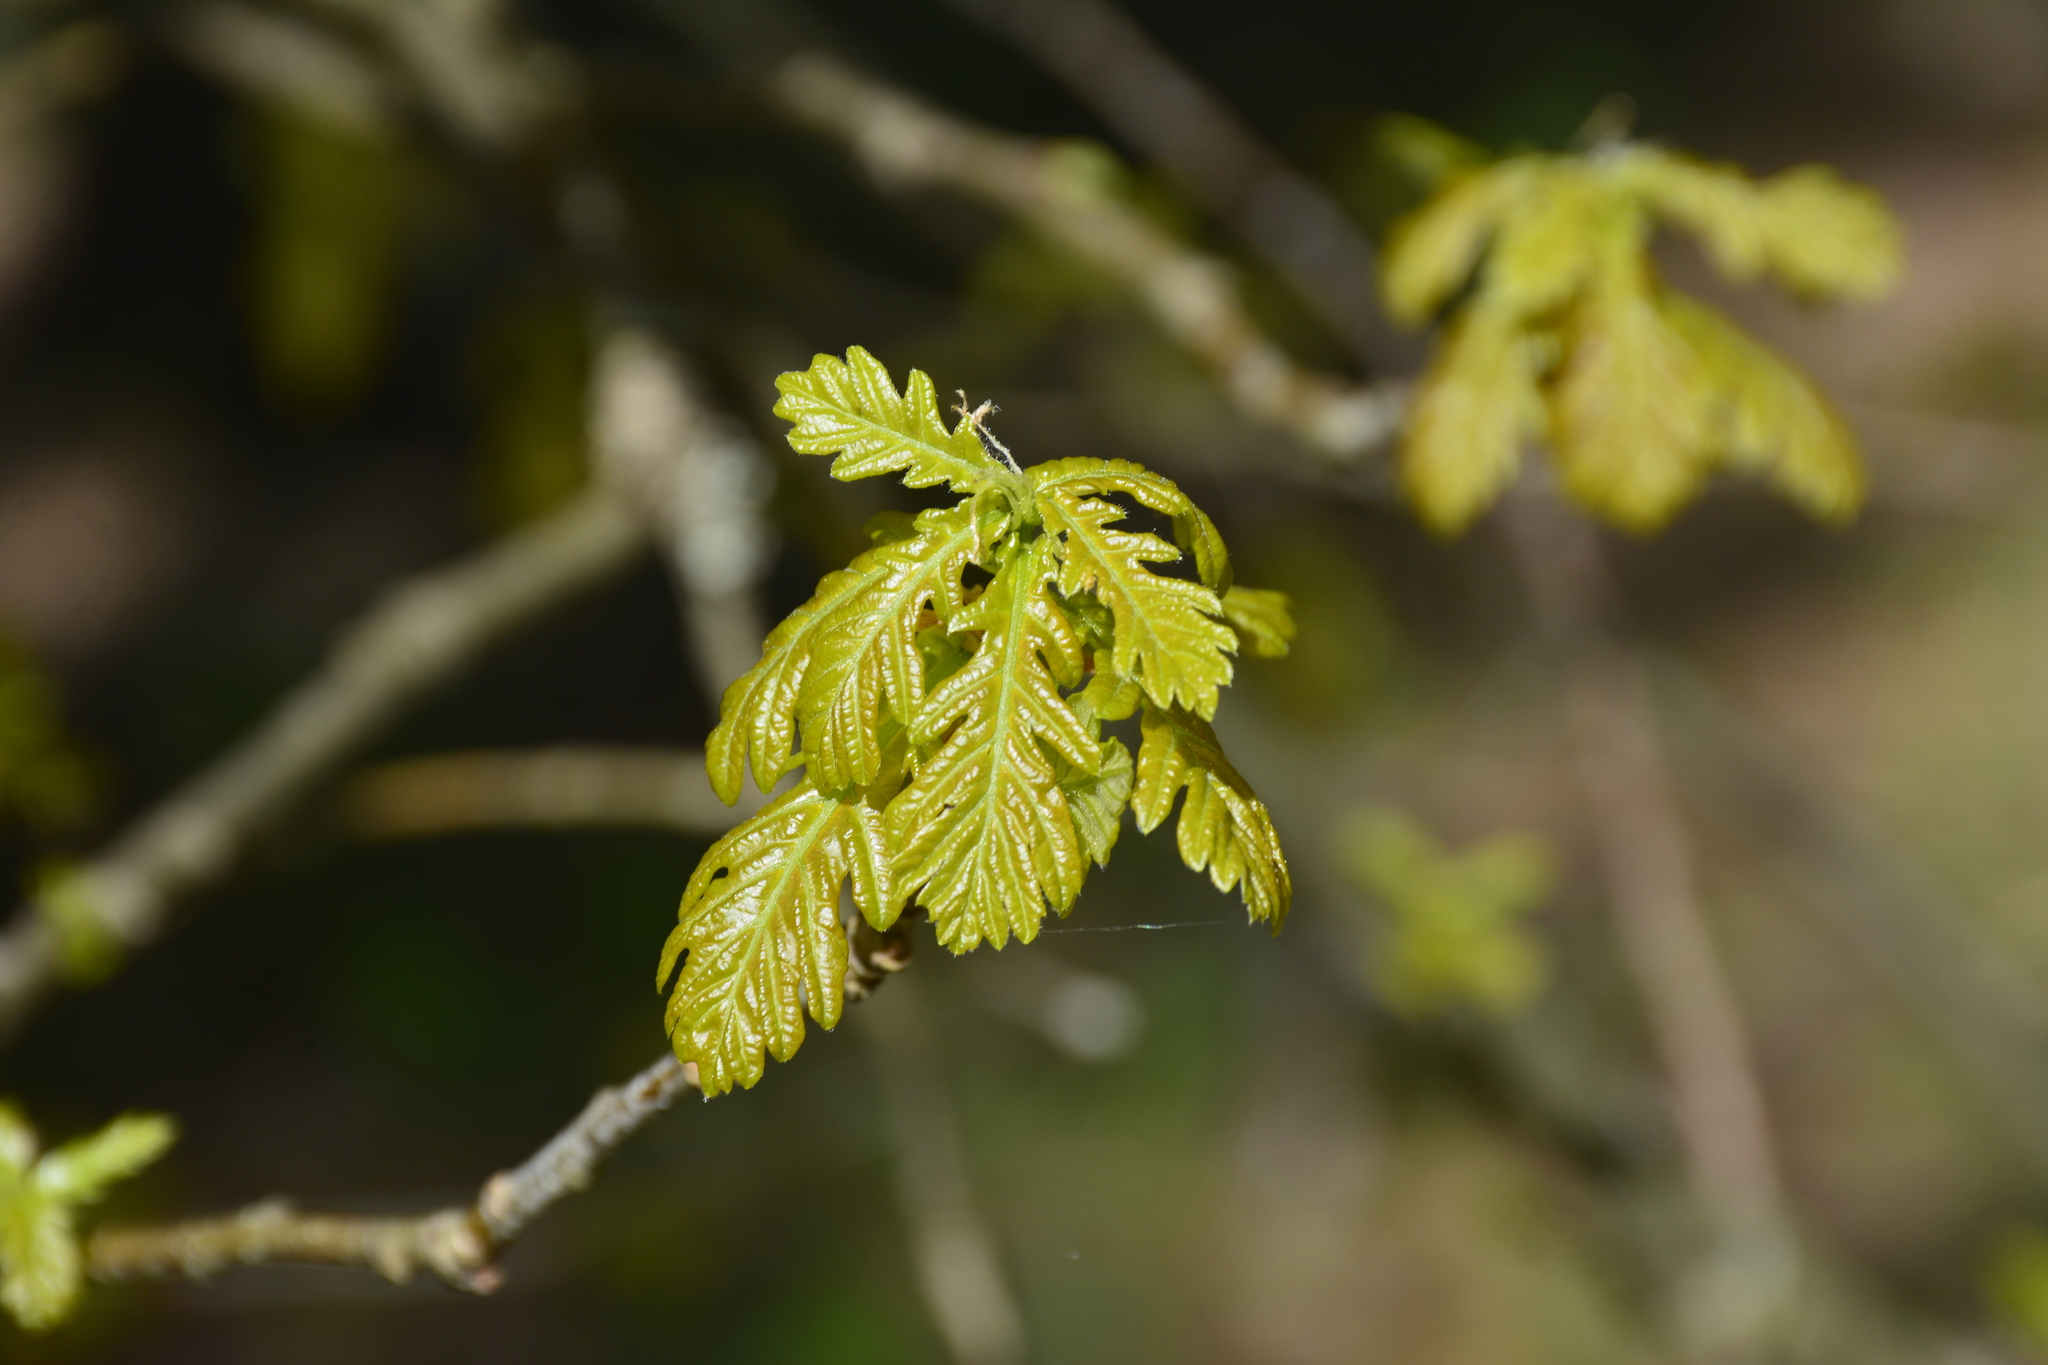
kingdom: Plantae
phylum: Tracheophyta
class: Magnoliopsida
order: Fagales
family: Fagaceae
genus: Quercus
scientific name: Quercus robur
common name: Pedunculate oak
